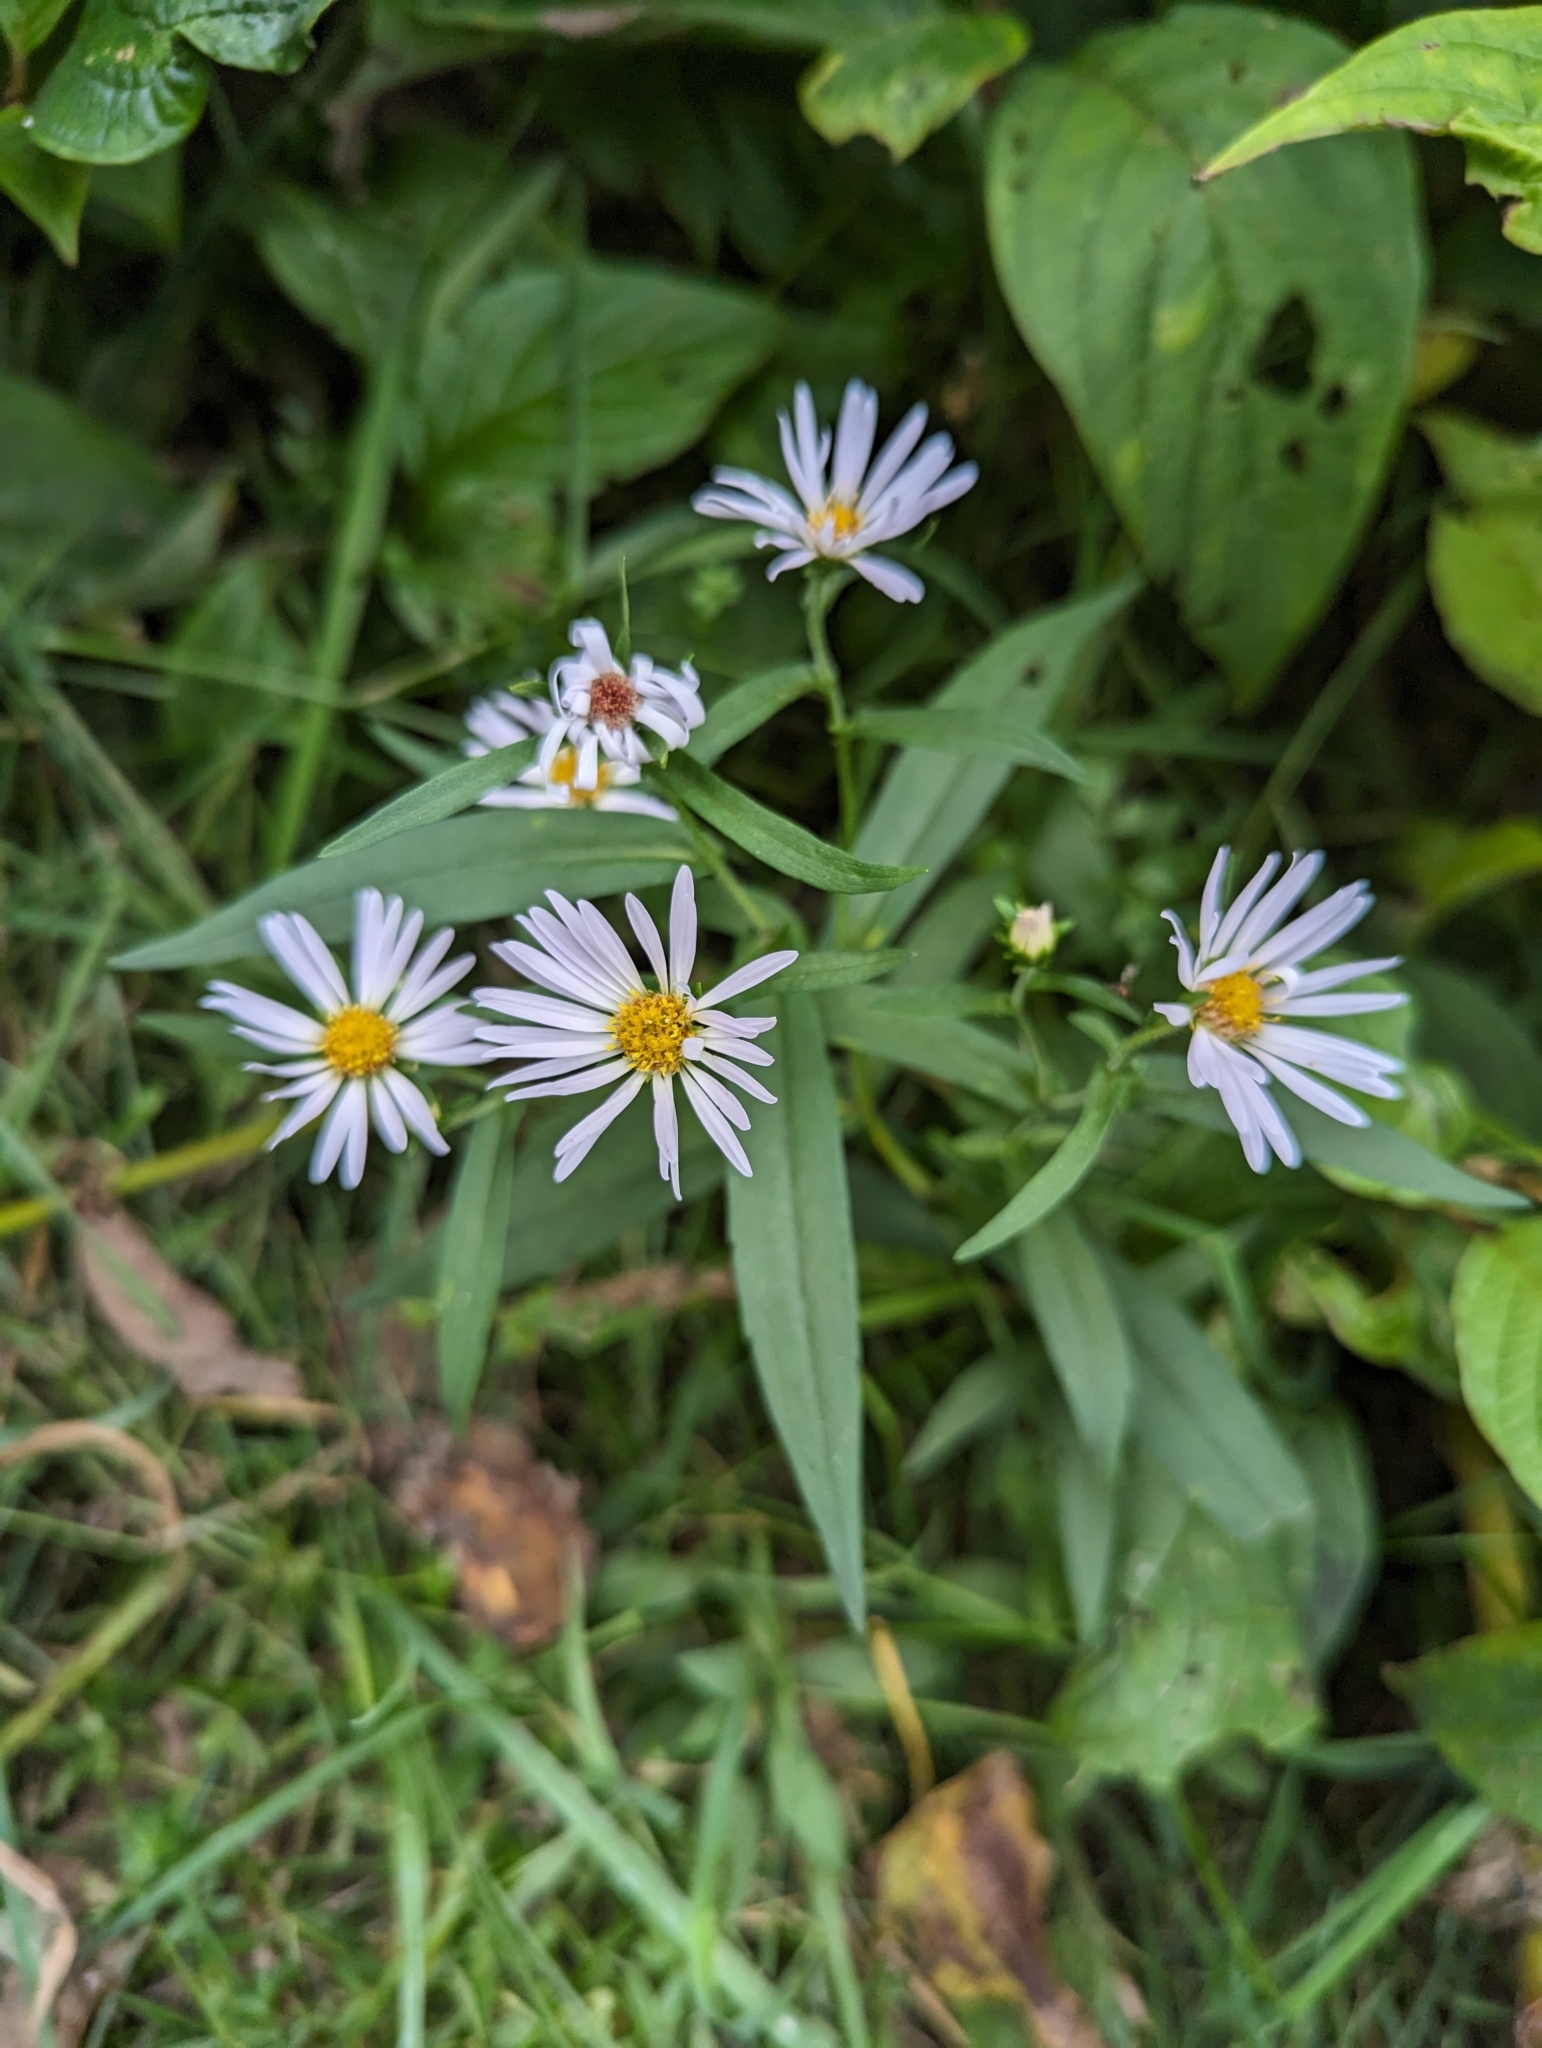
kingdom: Plantae
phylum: Tracheophyta
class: Magnoliopsida
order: Asterales
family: Asteraceae
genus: Symphyotrichum
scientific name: Symphyotrichum novi-belgii
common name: Michaelmas daisy
